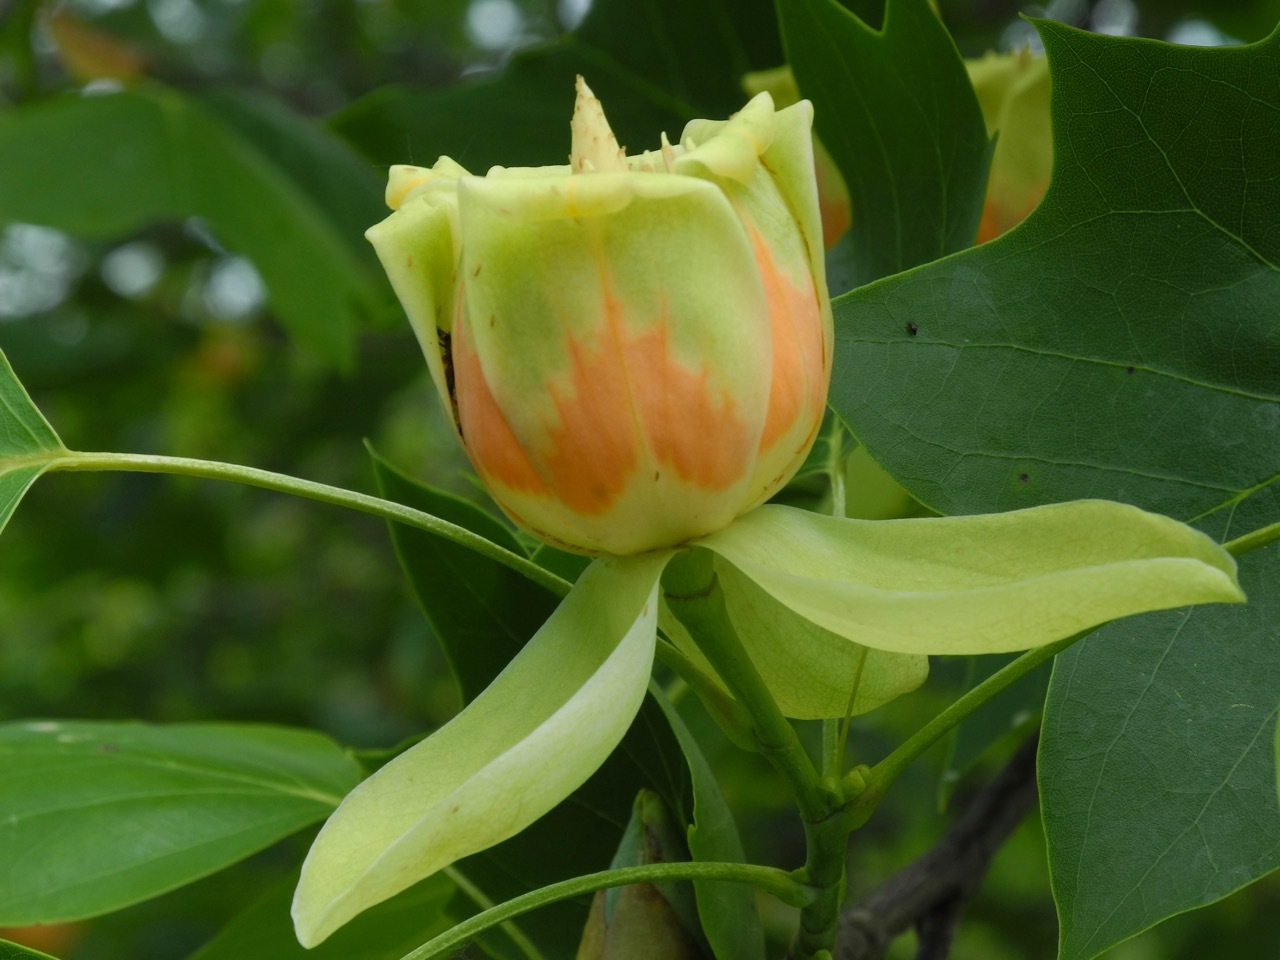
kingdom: Plantae
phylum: Tracheophyta
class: Magnoliopsida
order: Magnoliales
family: Magnoliaceae
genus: Liriodendron
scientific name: Liriodendron tulipifera
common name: Tulip tree
